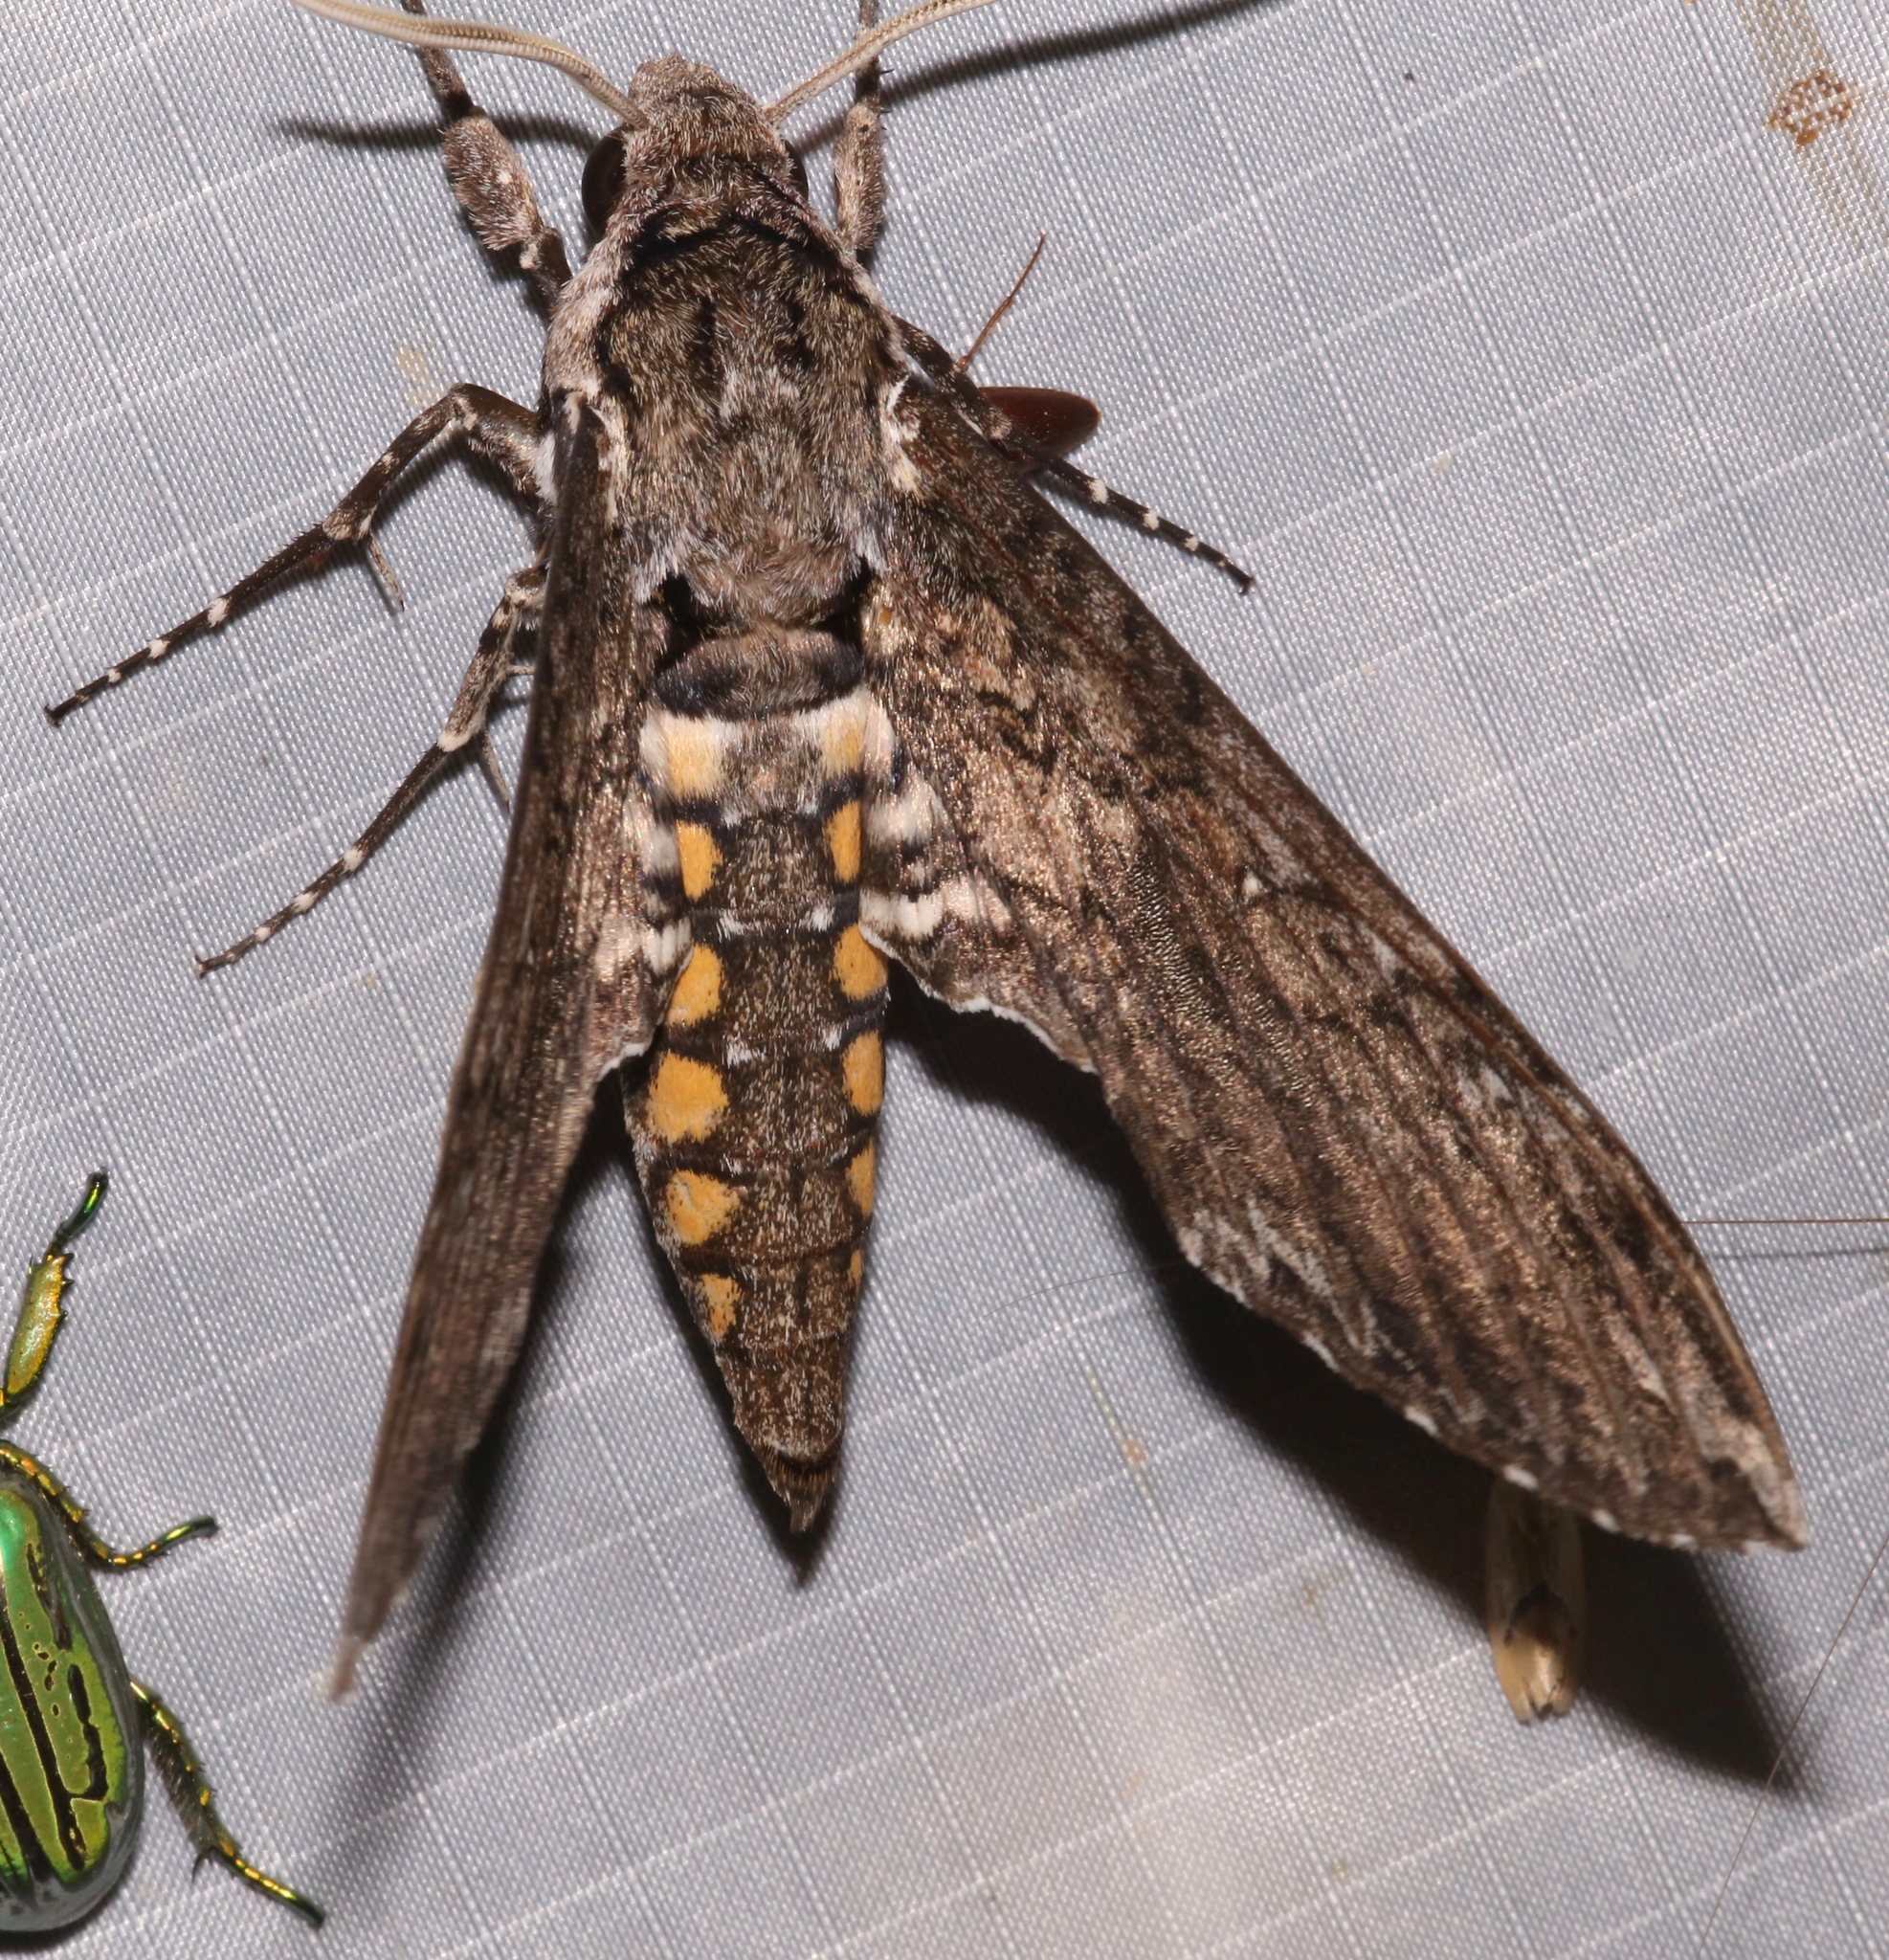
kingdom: Animalia
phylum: Arthropoda
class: Insecta
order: Lepidoptera
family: Sphingidae
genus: Manduca
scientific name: Manduca sexta
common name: Carolina sphinx
